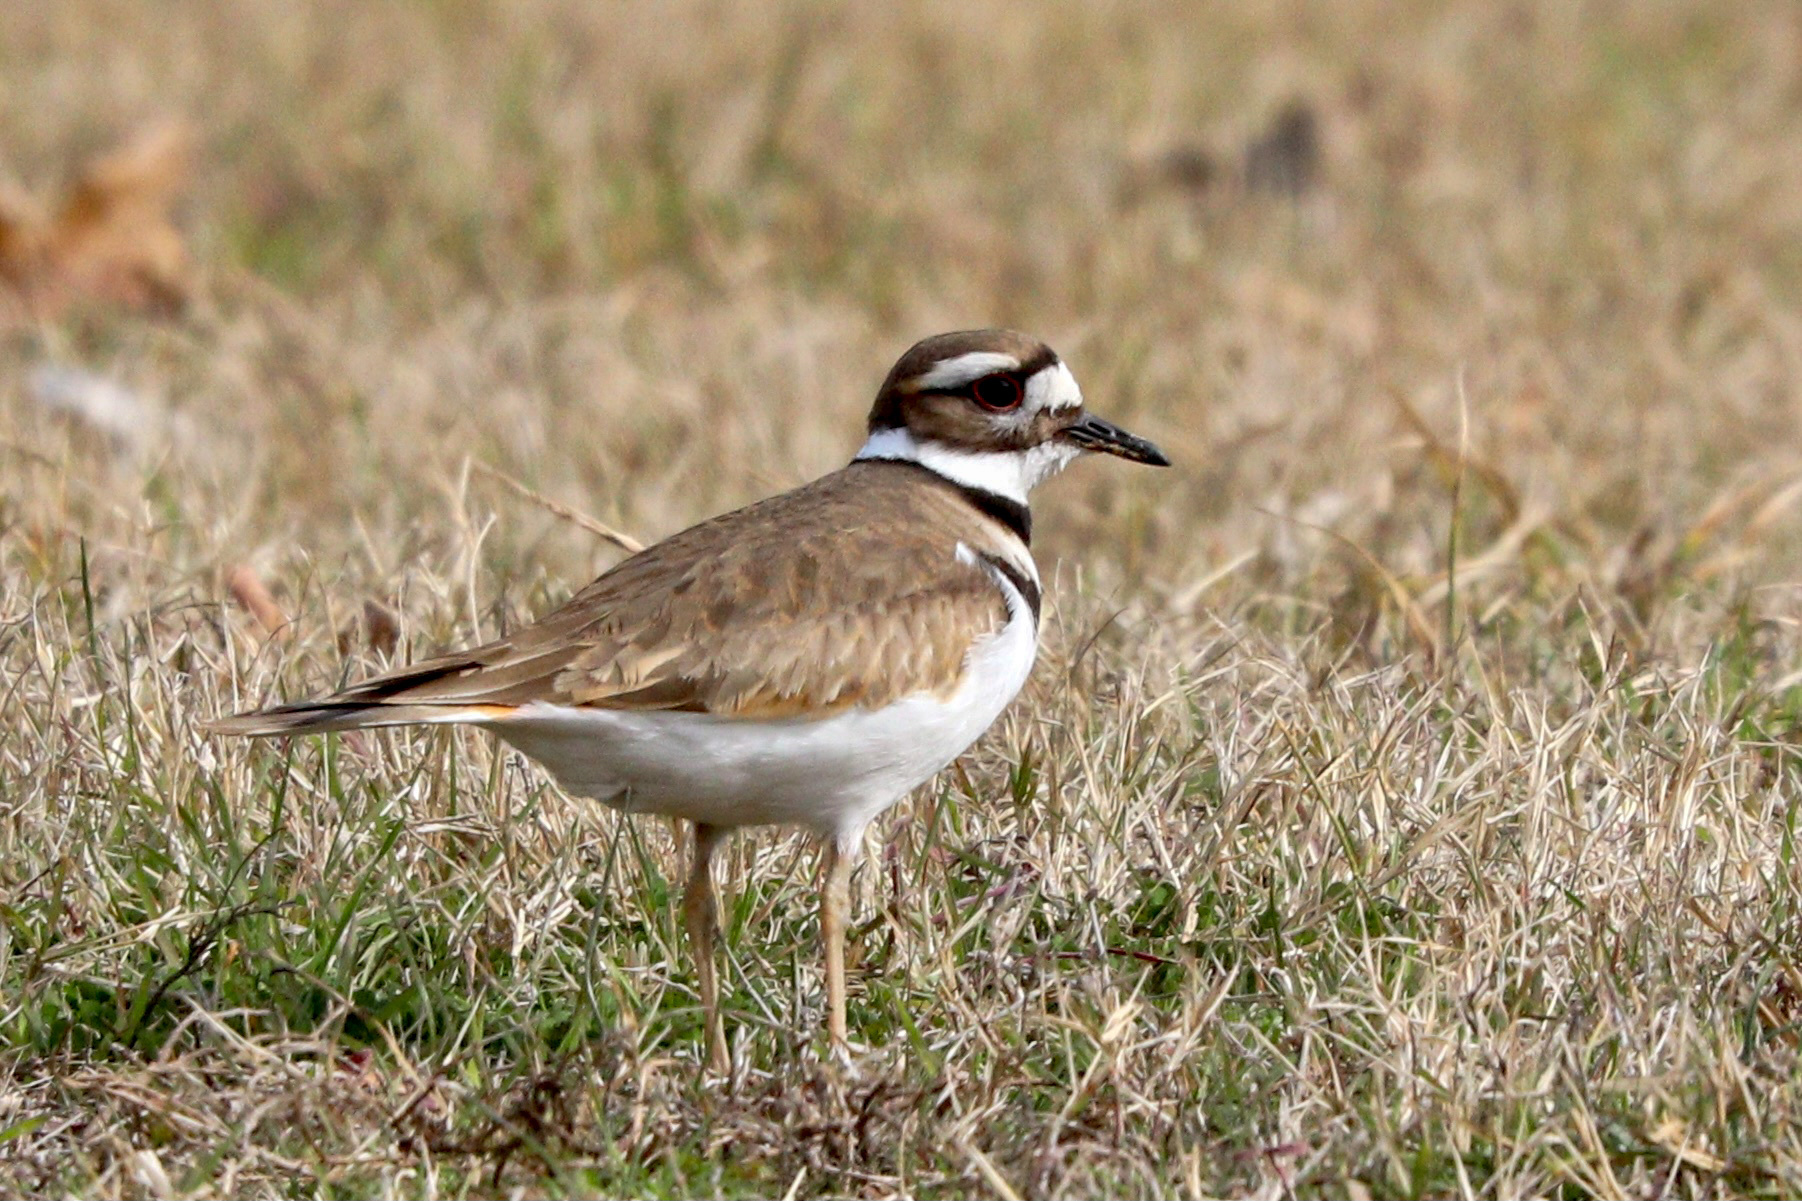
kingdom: Animalia
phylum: Chordata
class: Aves
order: Charadriiformes
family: Charadriidae
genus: Charadrius
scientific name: Charadrius vociferus
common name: Killdeer
